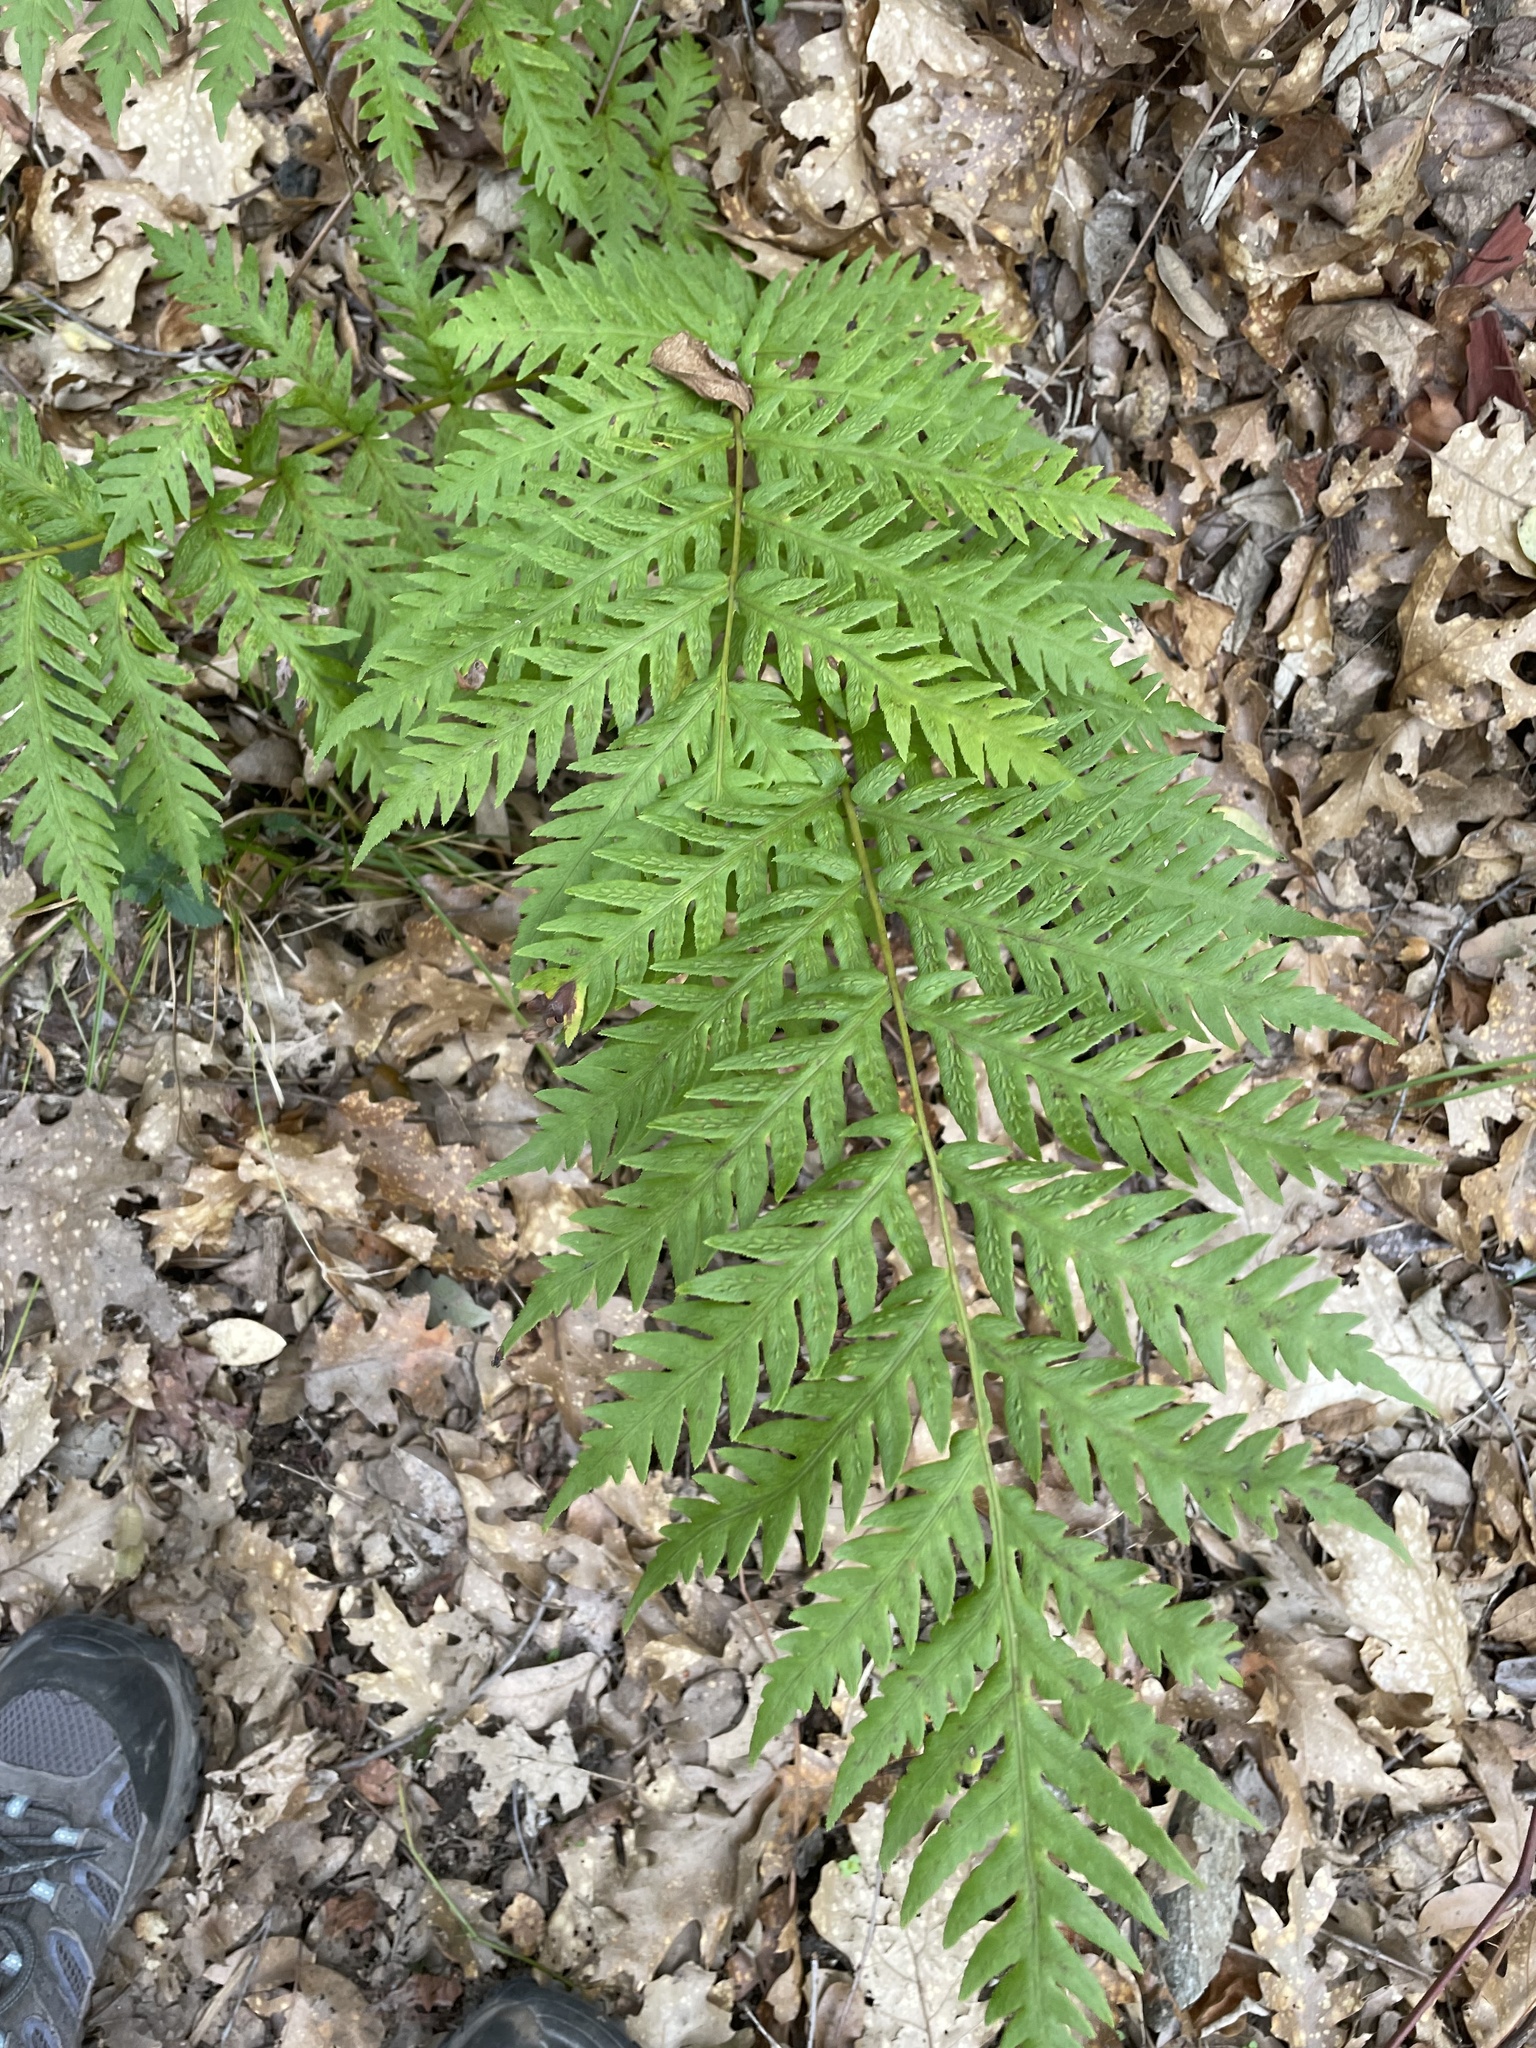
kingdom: Plantae
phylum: Tracheophyta
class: Polypodiopsida
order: Polypodiales
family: Blechnaceae
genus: Woodwardia
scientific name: Woodwardia fimbriata
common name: Giant chain fern
